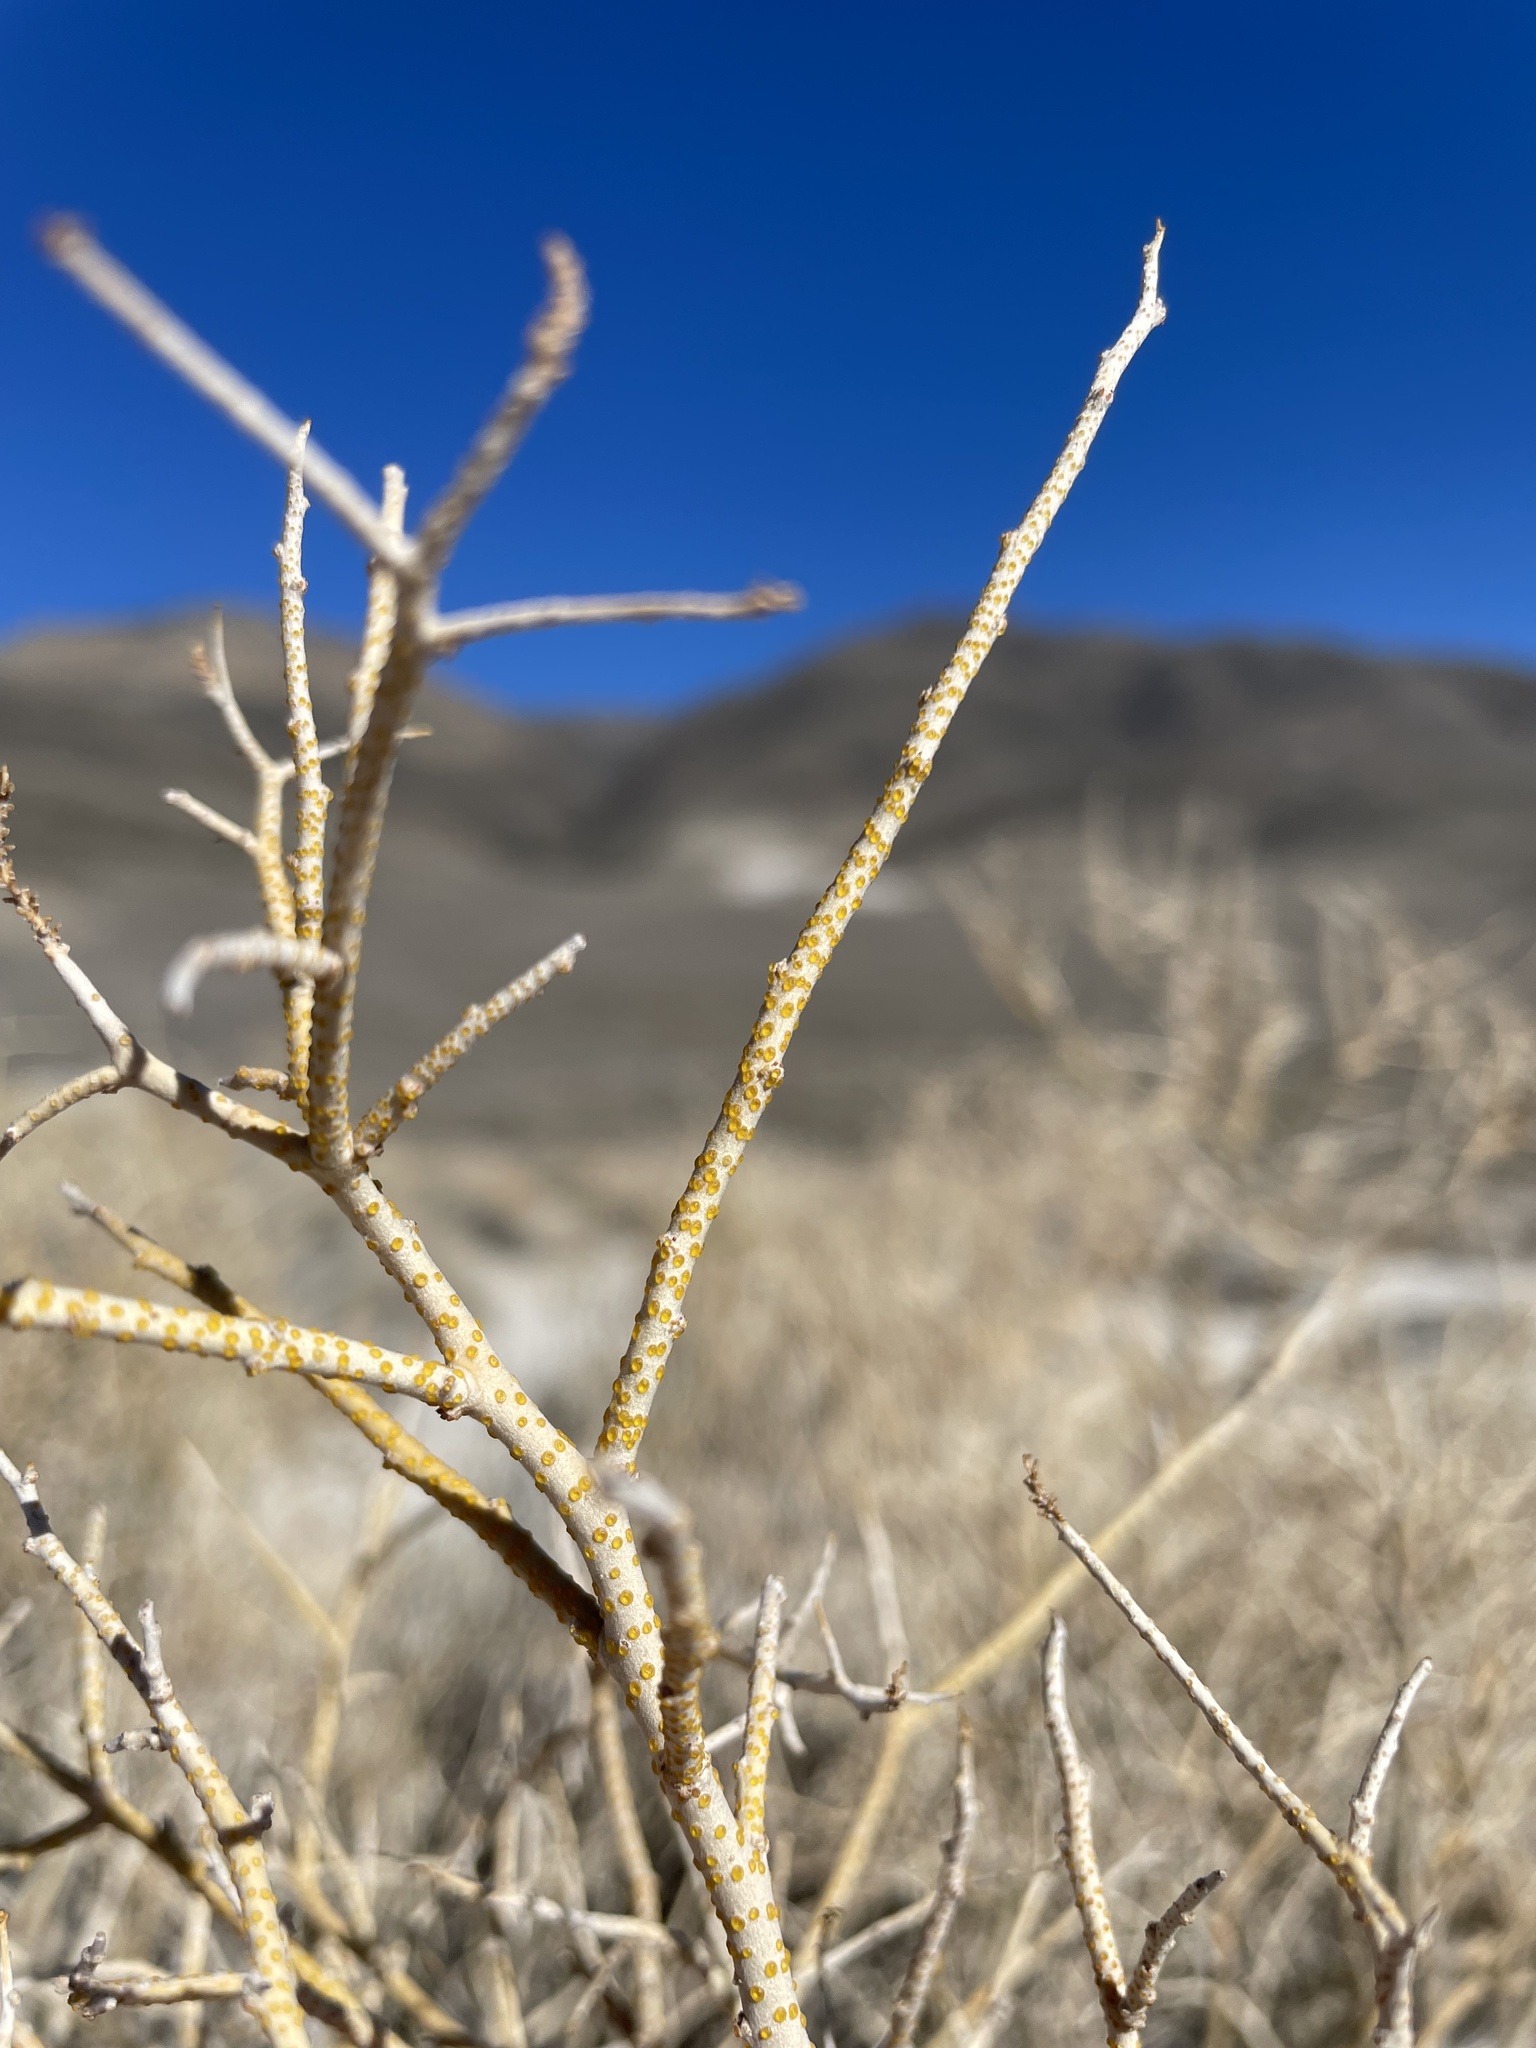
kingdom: Plantae
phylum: Tracheophyta
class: Magnoliopsida
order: Fabales
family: Fabaceae
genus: Psorothamnus
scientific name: Psorothamnus polydenius
